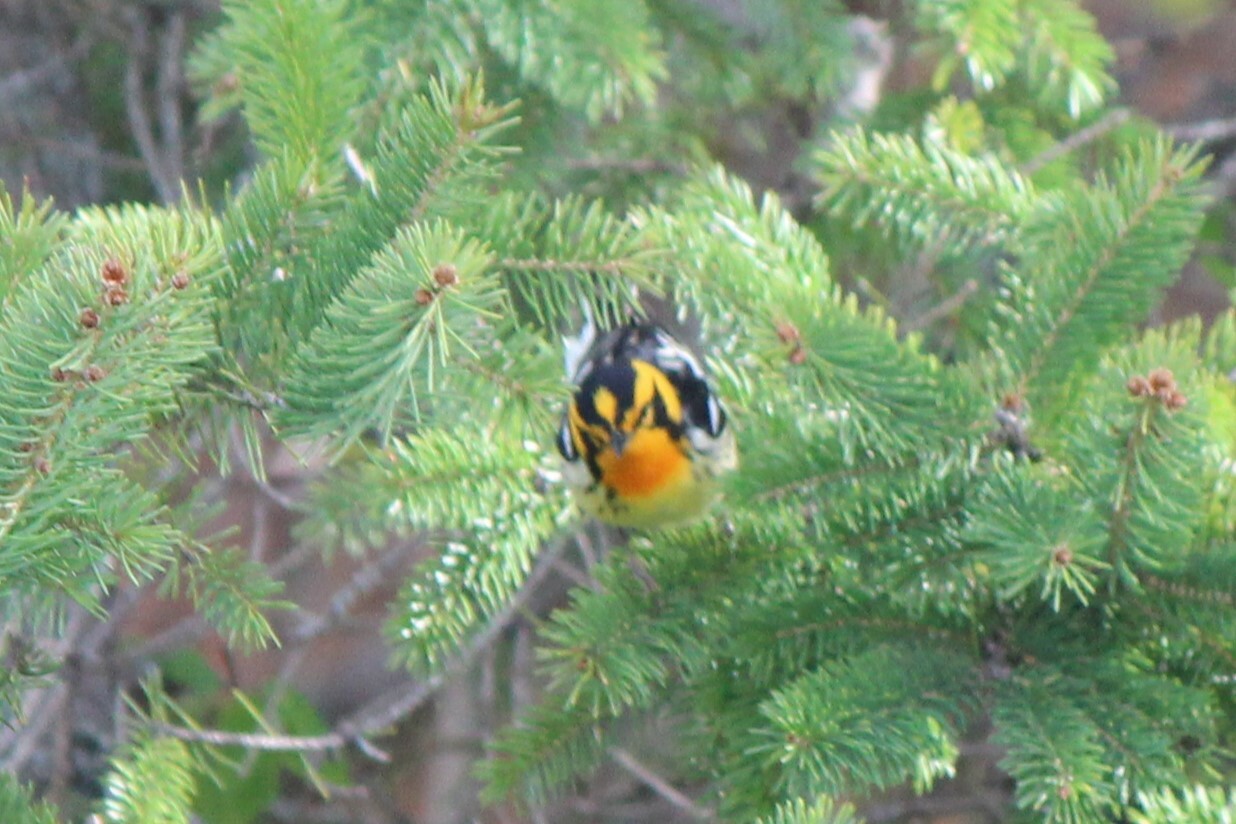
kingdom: Animalia
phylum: Chordata
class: Aves
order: Passeriformes
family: Parulidae
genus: Setophaga
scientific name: Setophaga fusca
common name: Blackburnian warbler
